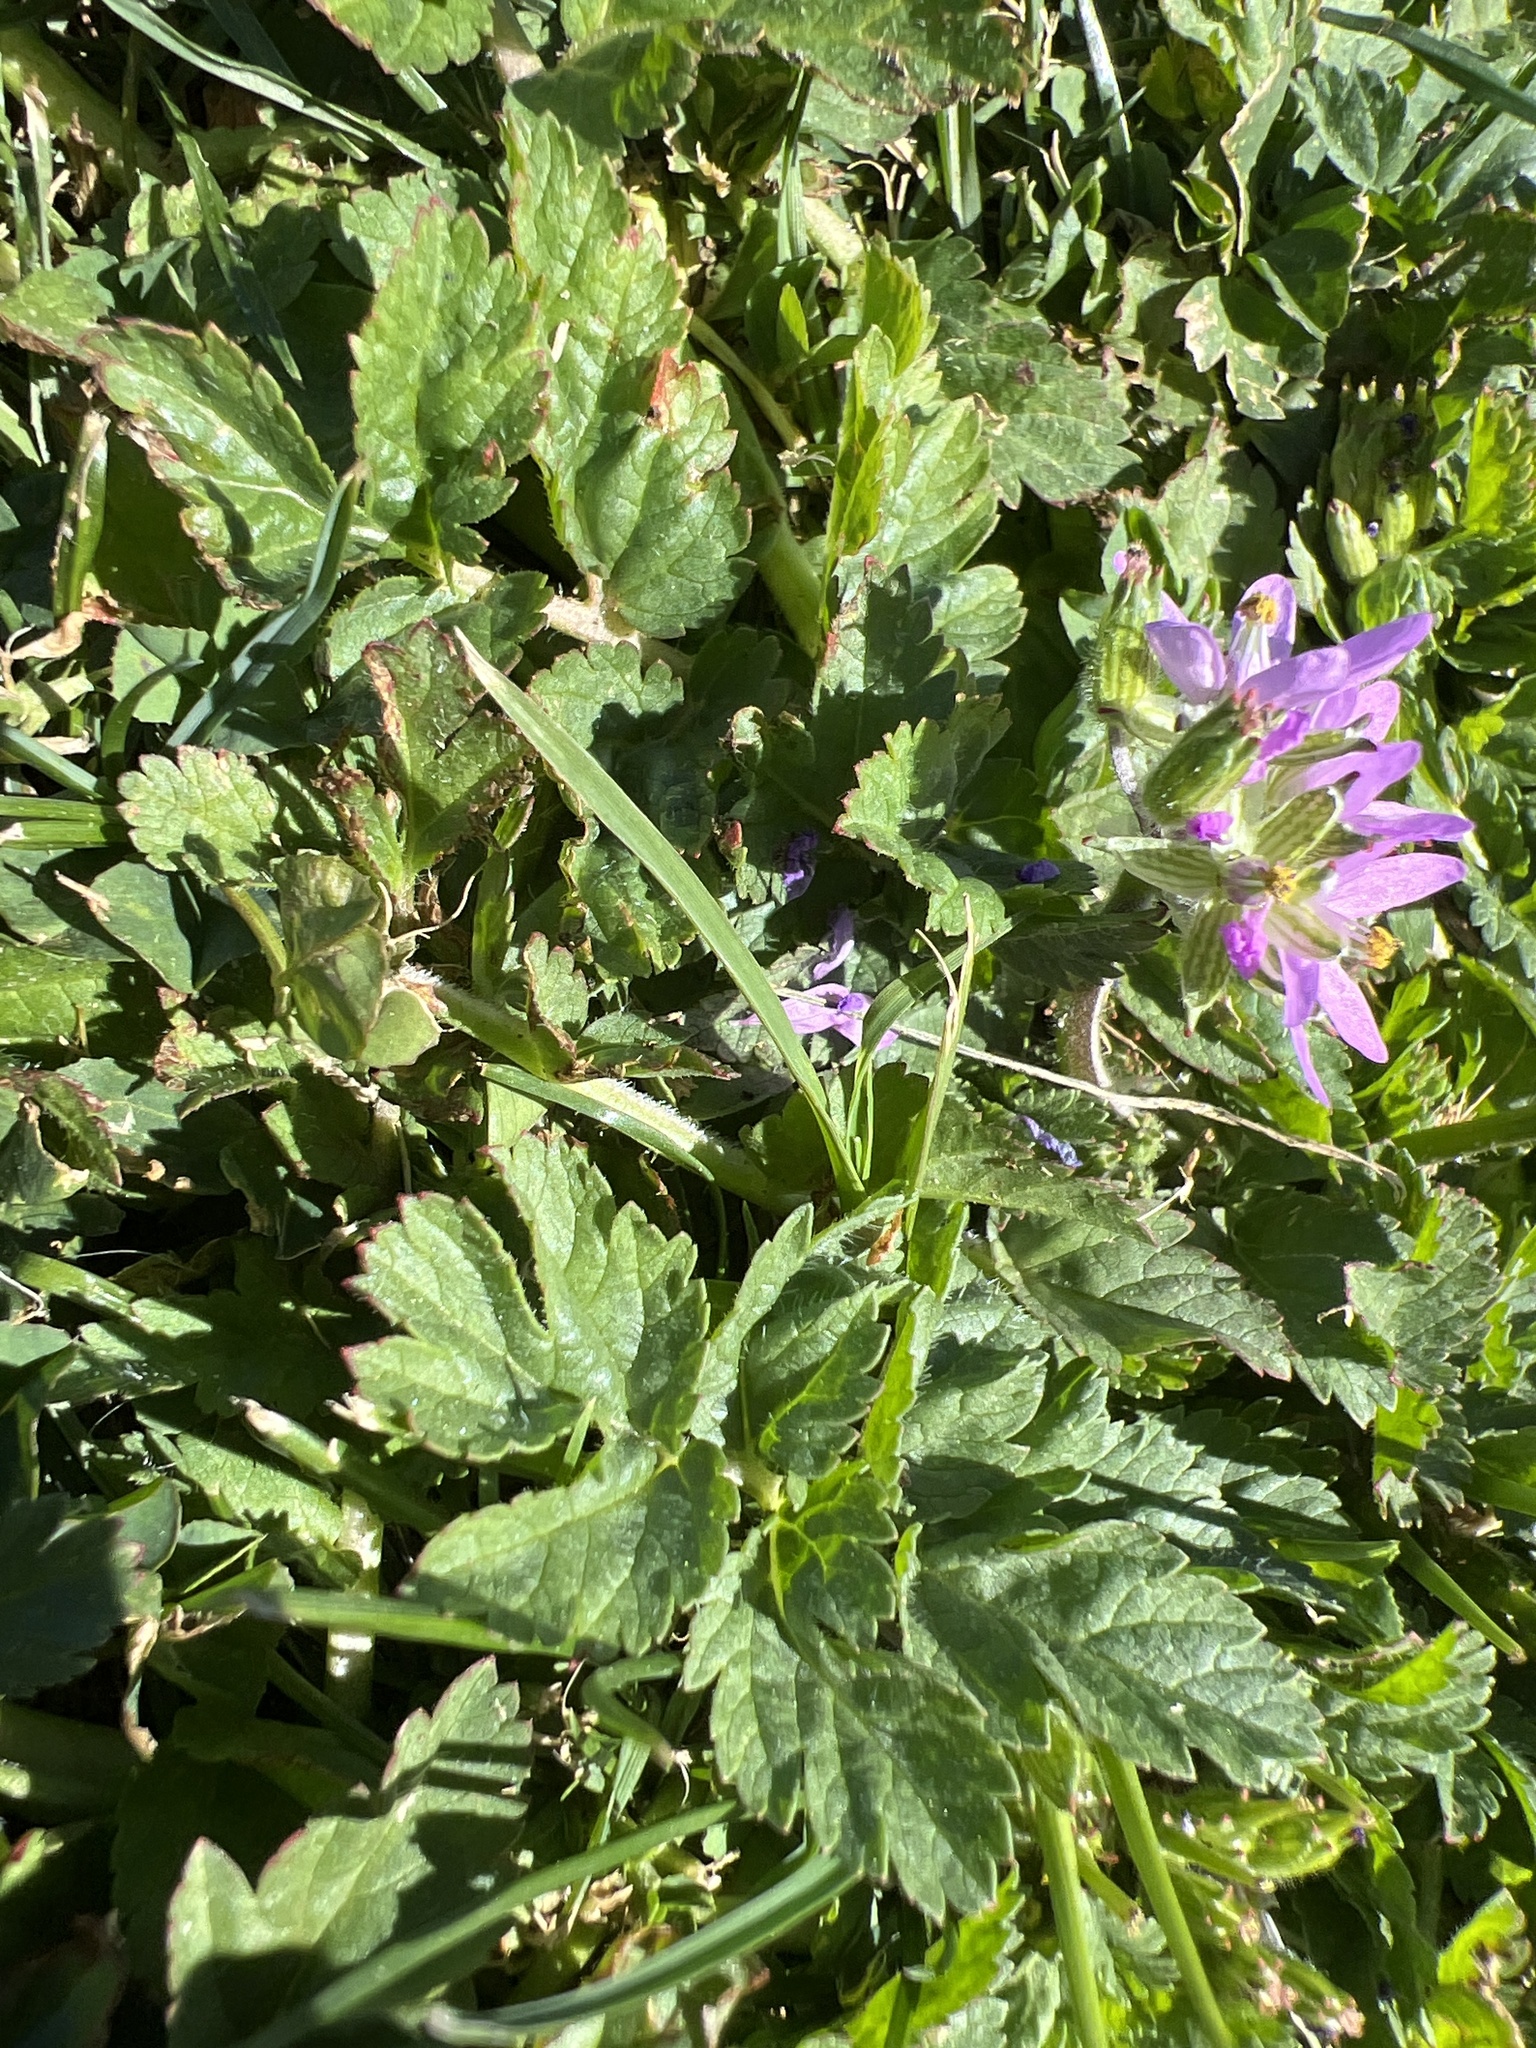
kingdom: Plantae
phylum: Tracheophyta
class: Magnoliopsida
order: Geraniales
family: Geraniaceae
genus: Erodium
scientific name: Erodium moschatum
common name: Musk stork's-bill
